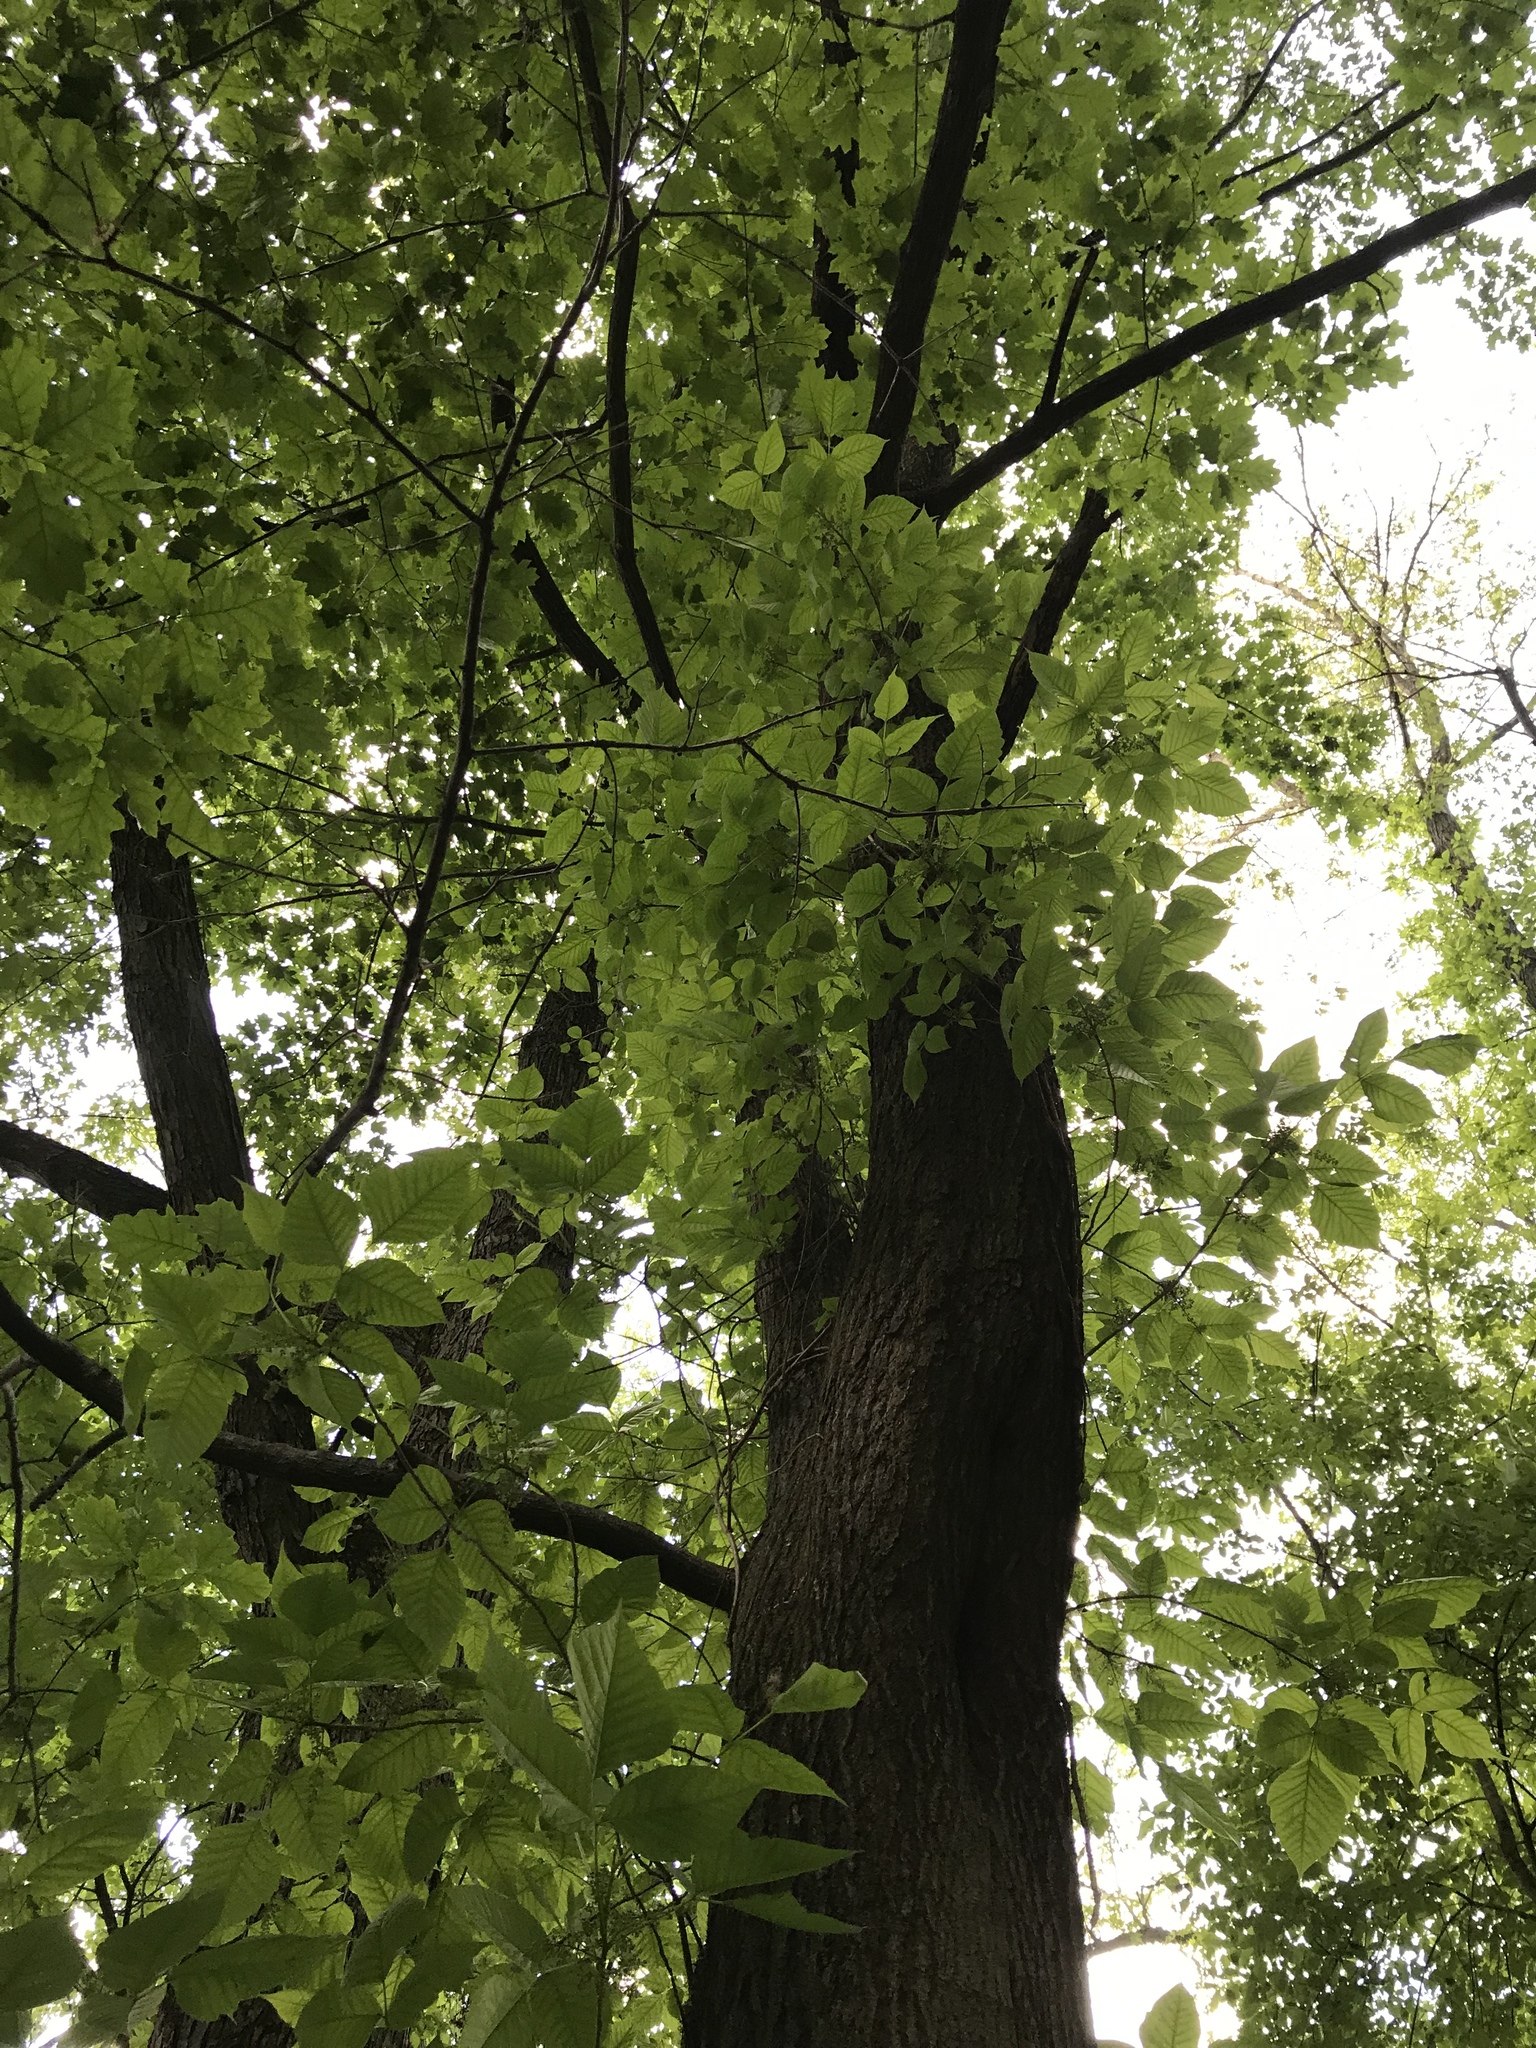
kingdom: Plantae
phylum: Tracheophyta
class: Magnoliopsida
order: Sapindales
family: Anacardiaceae
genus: Toxicodendron
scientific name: Toxicodendron radicans
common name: Poison ivy
